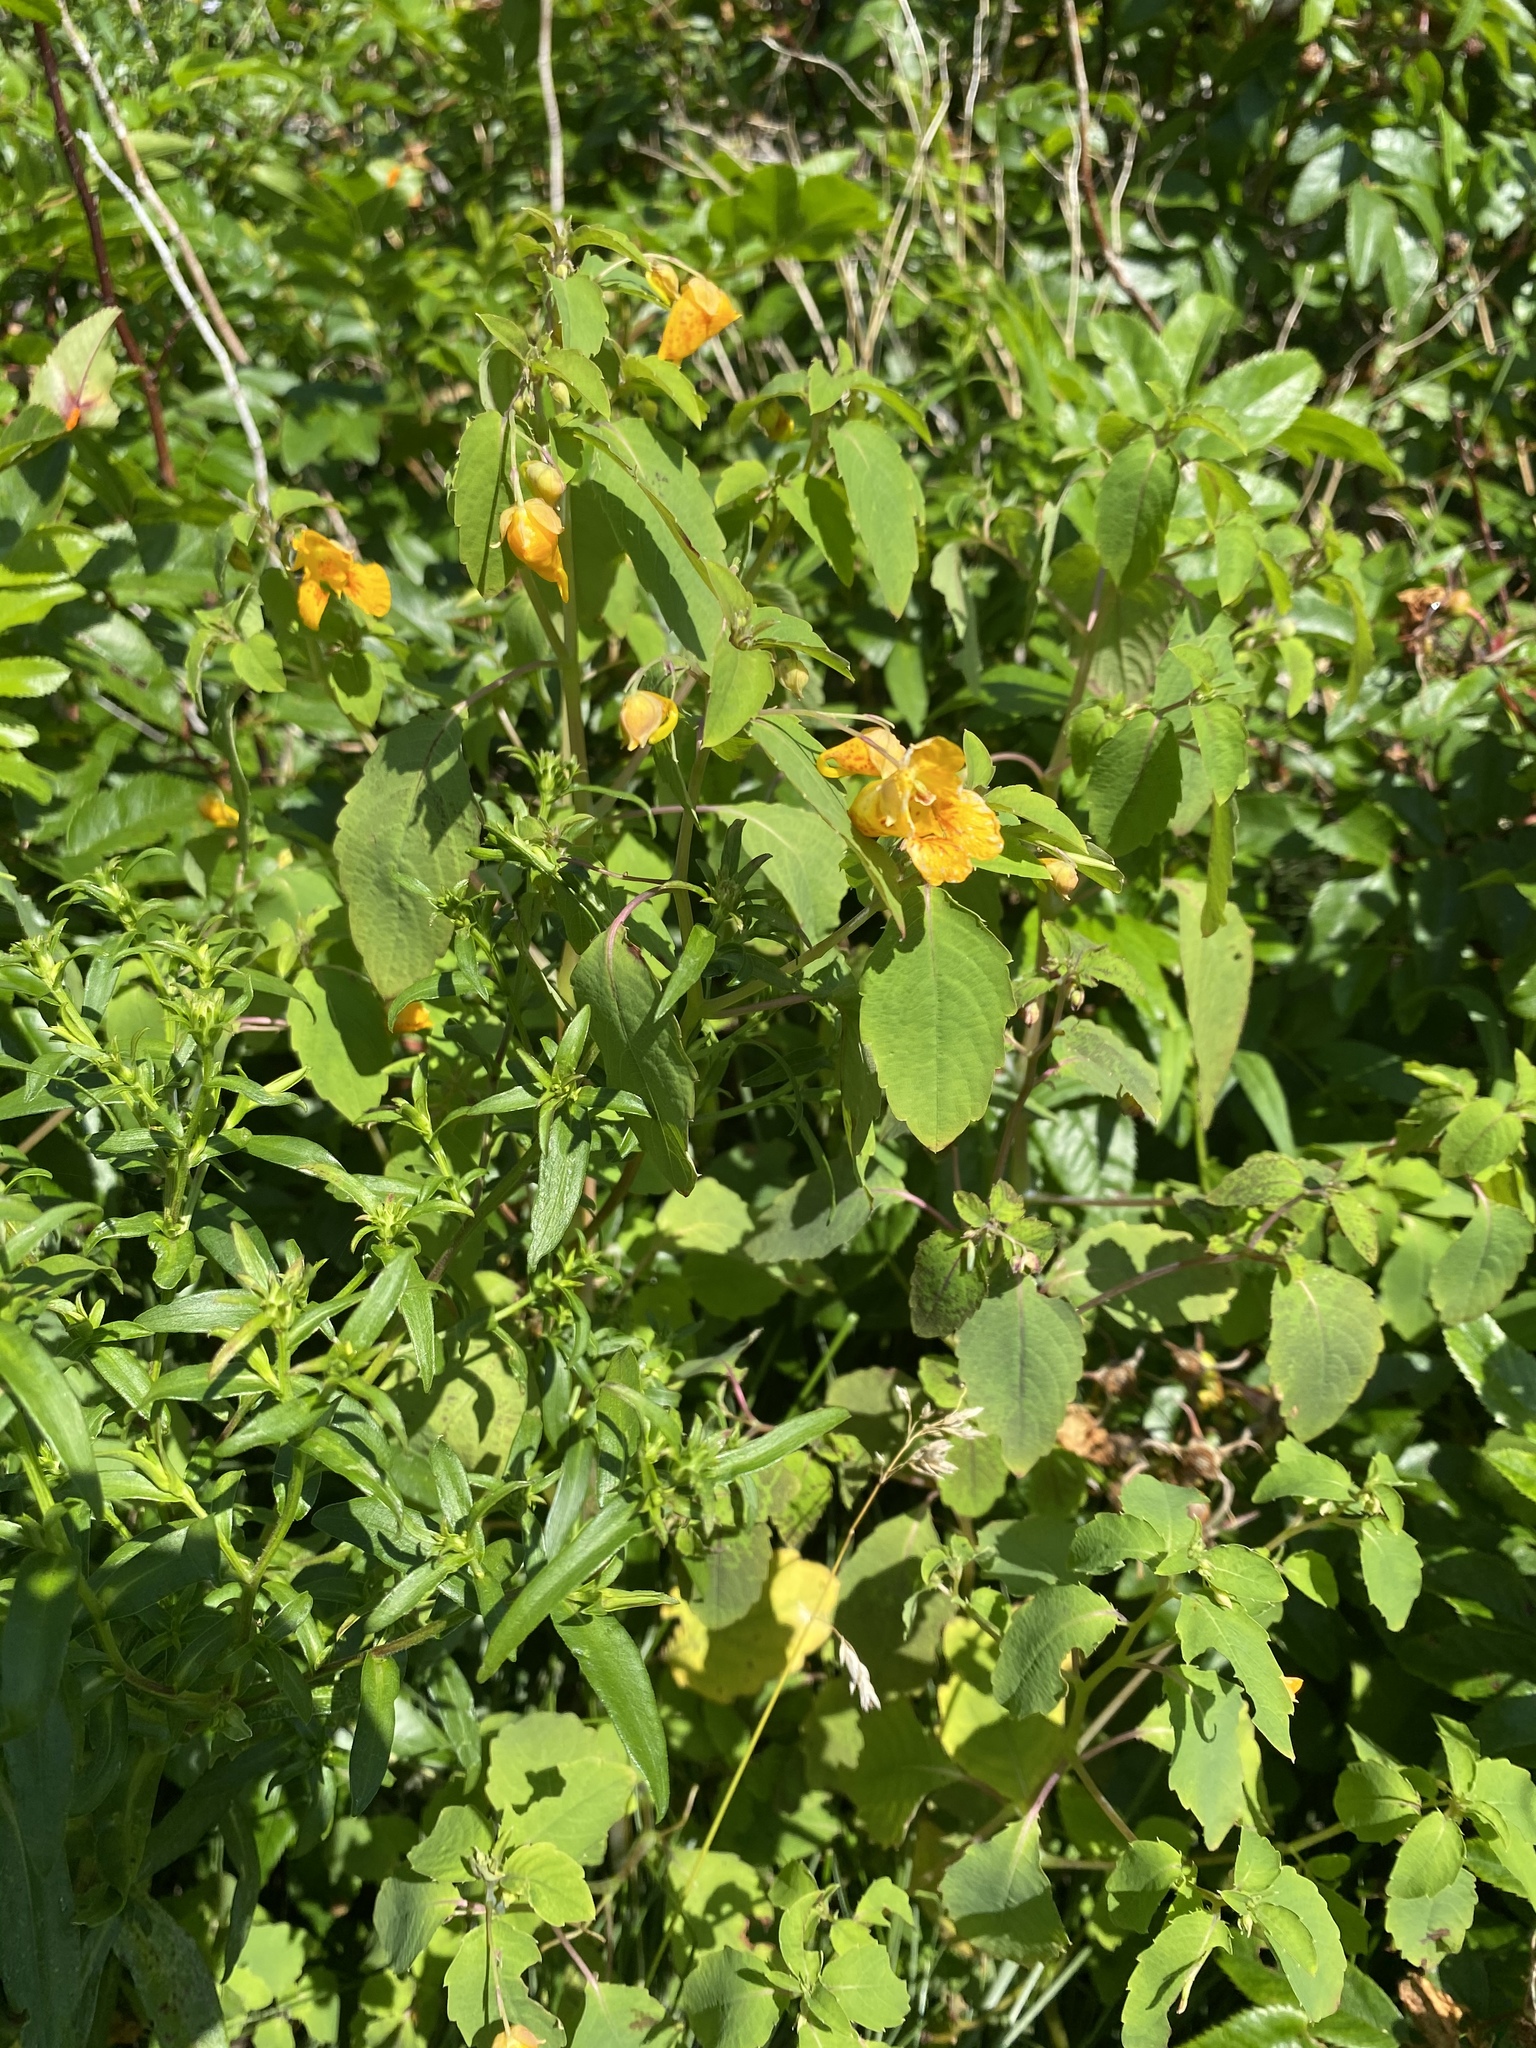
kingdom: Plantae
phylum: Tracheophyta
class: Magnoliopsida
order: Ericales
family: Balsaminaceae
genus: Impatiens
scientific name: Impatiens capensis
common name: Orange balsam
